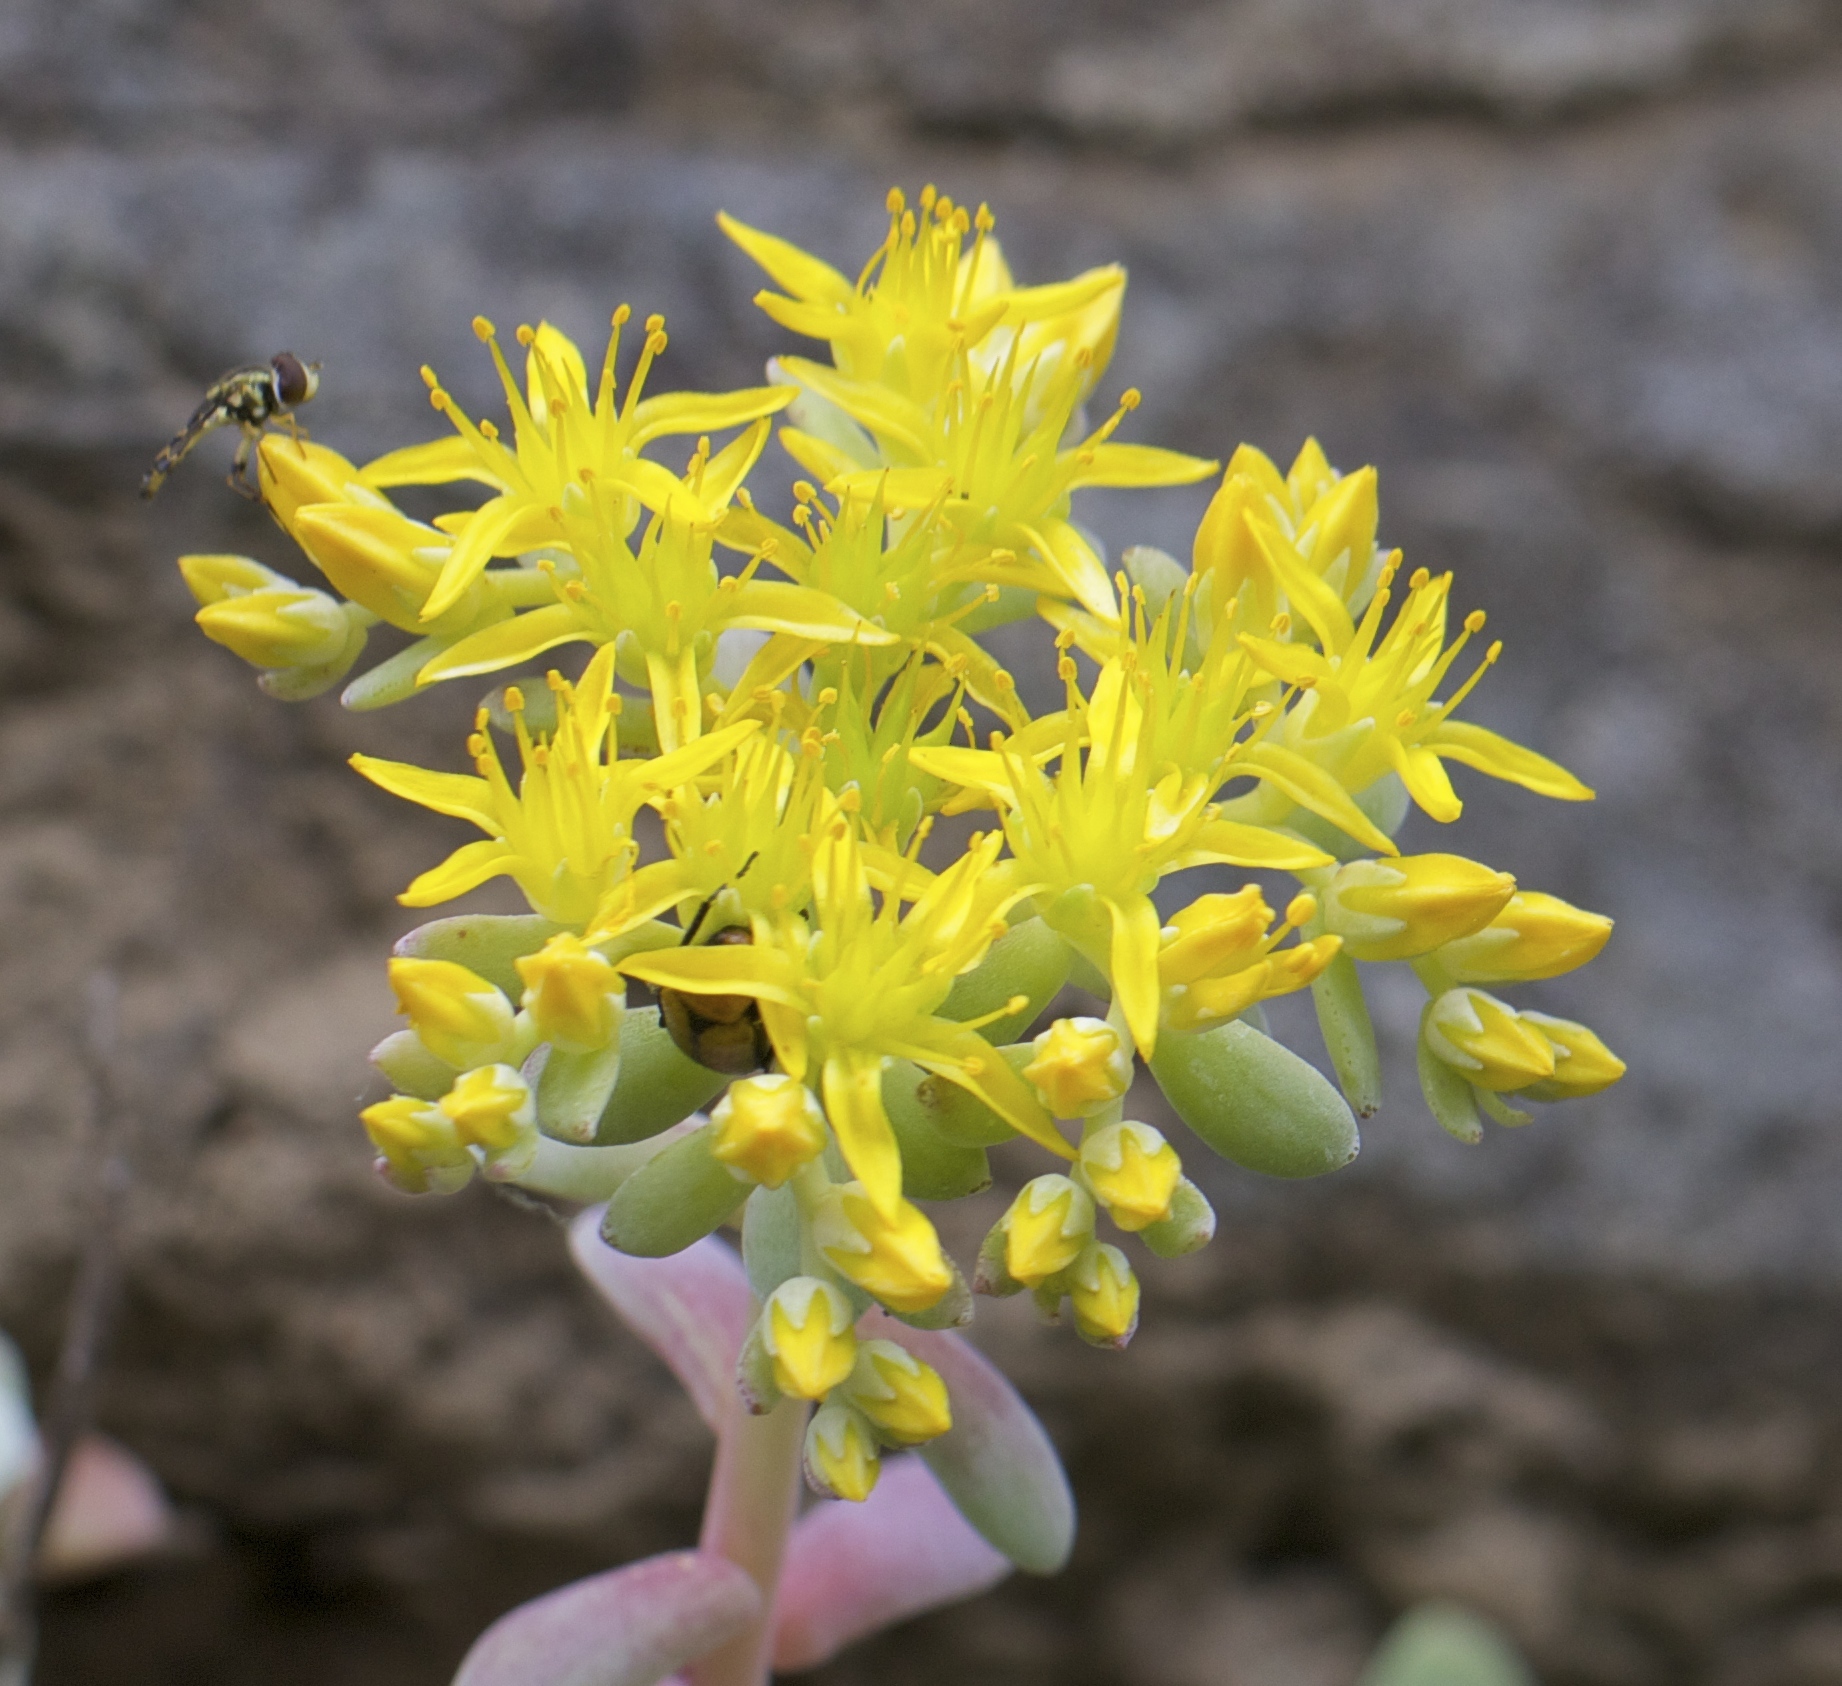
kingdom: Plantae
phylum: Tracheophyta
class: Magnoliopsida
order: Saxifragales
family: Crassulaceae
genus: Sedum
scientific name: Sedum spathulifolium
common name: Colorado stonecrop
